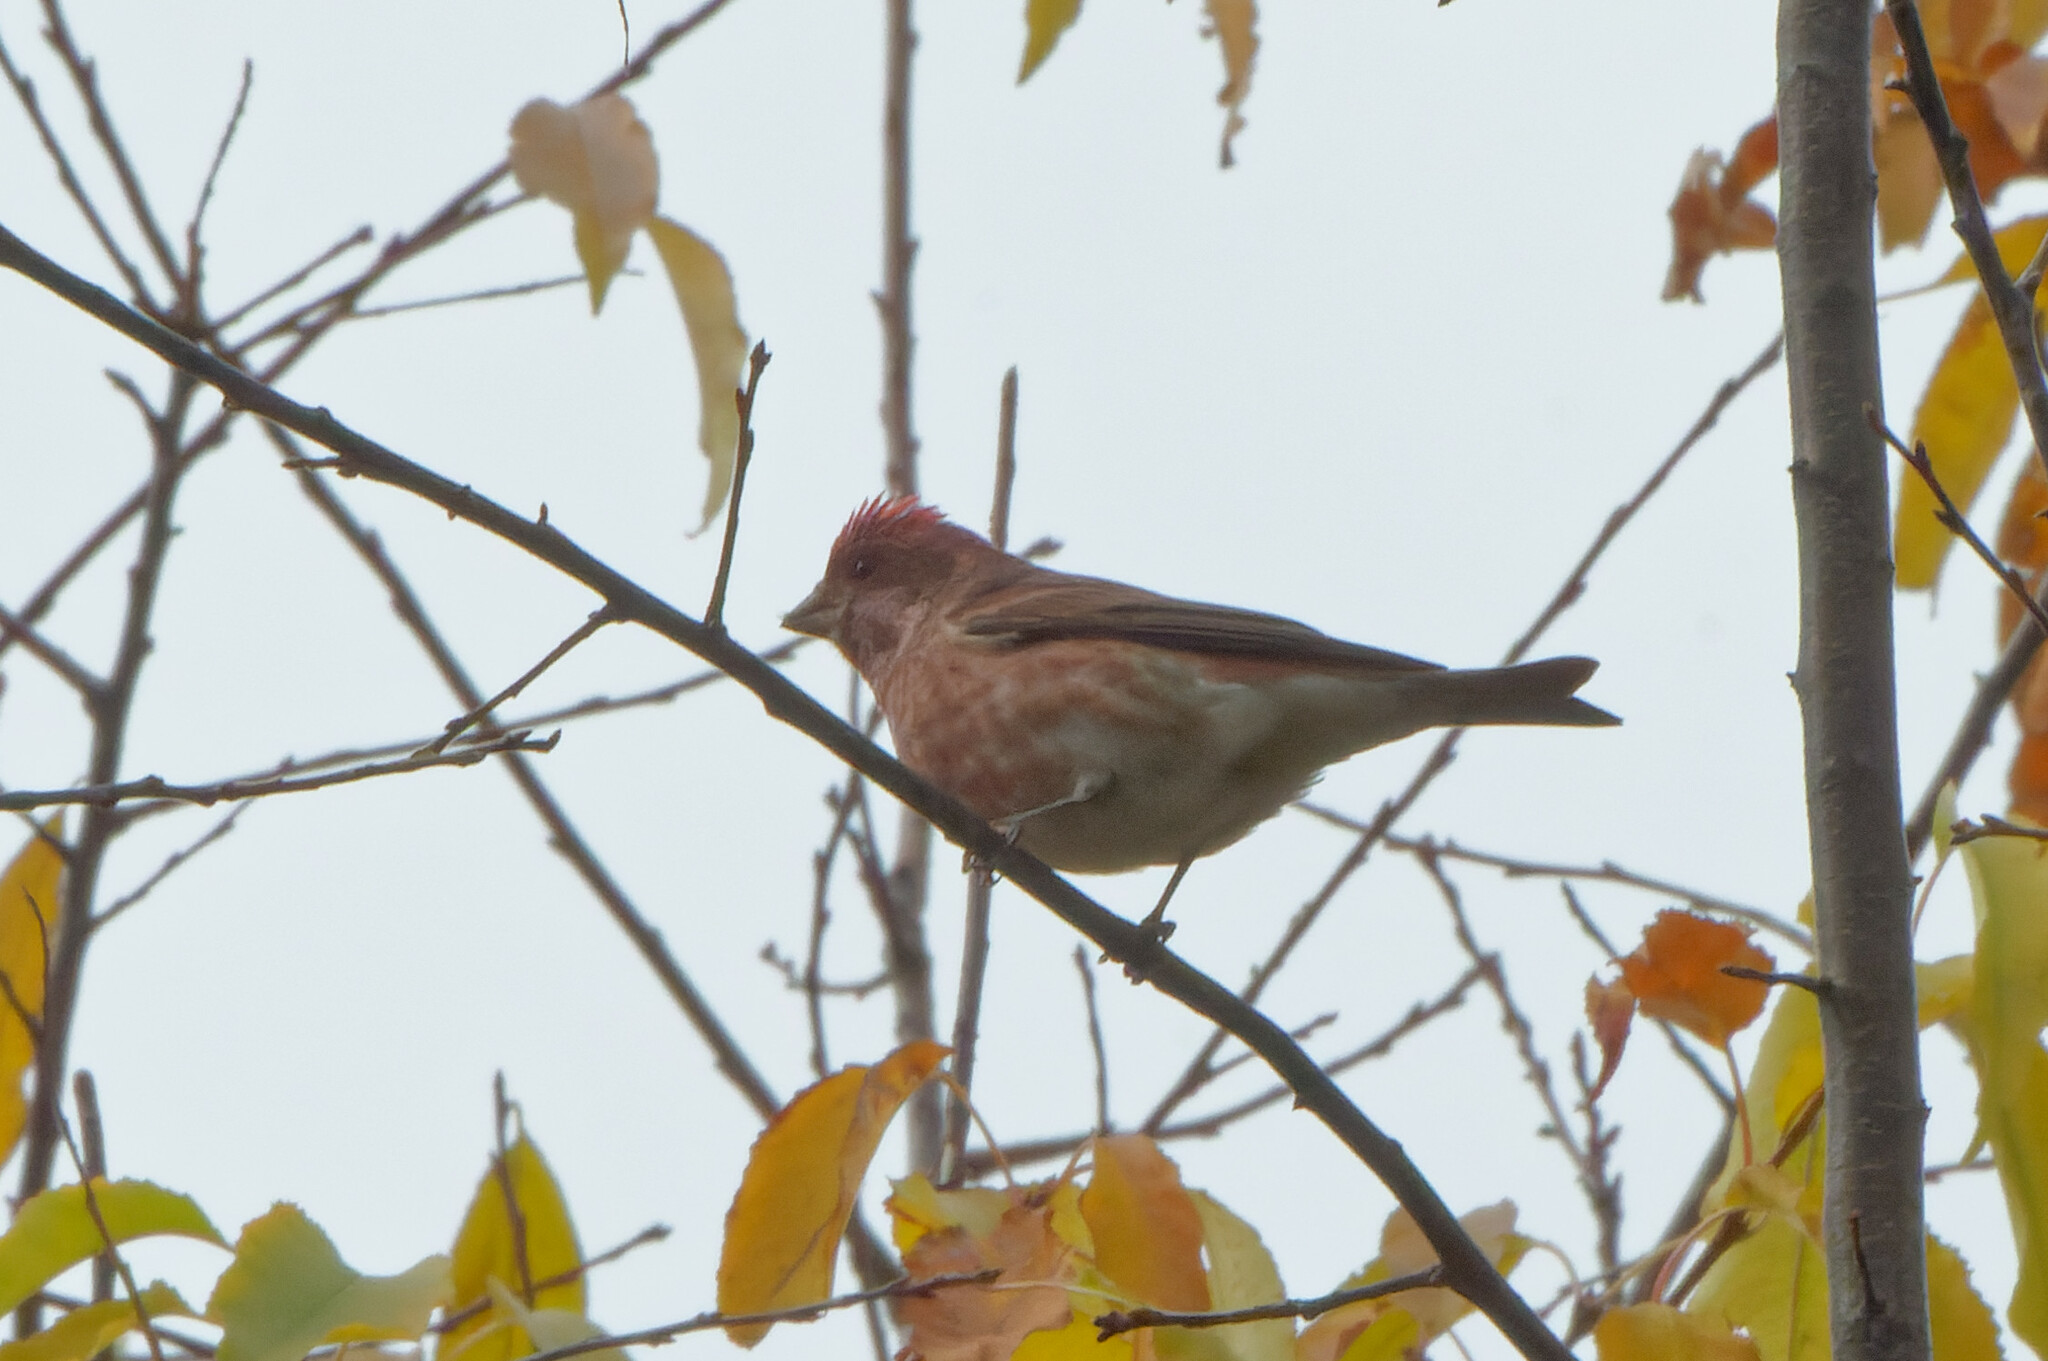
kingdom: Animalia
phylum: Chordata
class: Aves
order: Passeriformes
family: Fringillidae
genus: Haemorhous
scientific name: Haemorhous purpureus
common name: Purple finch
